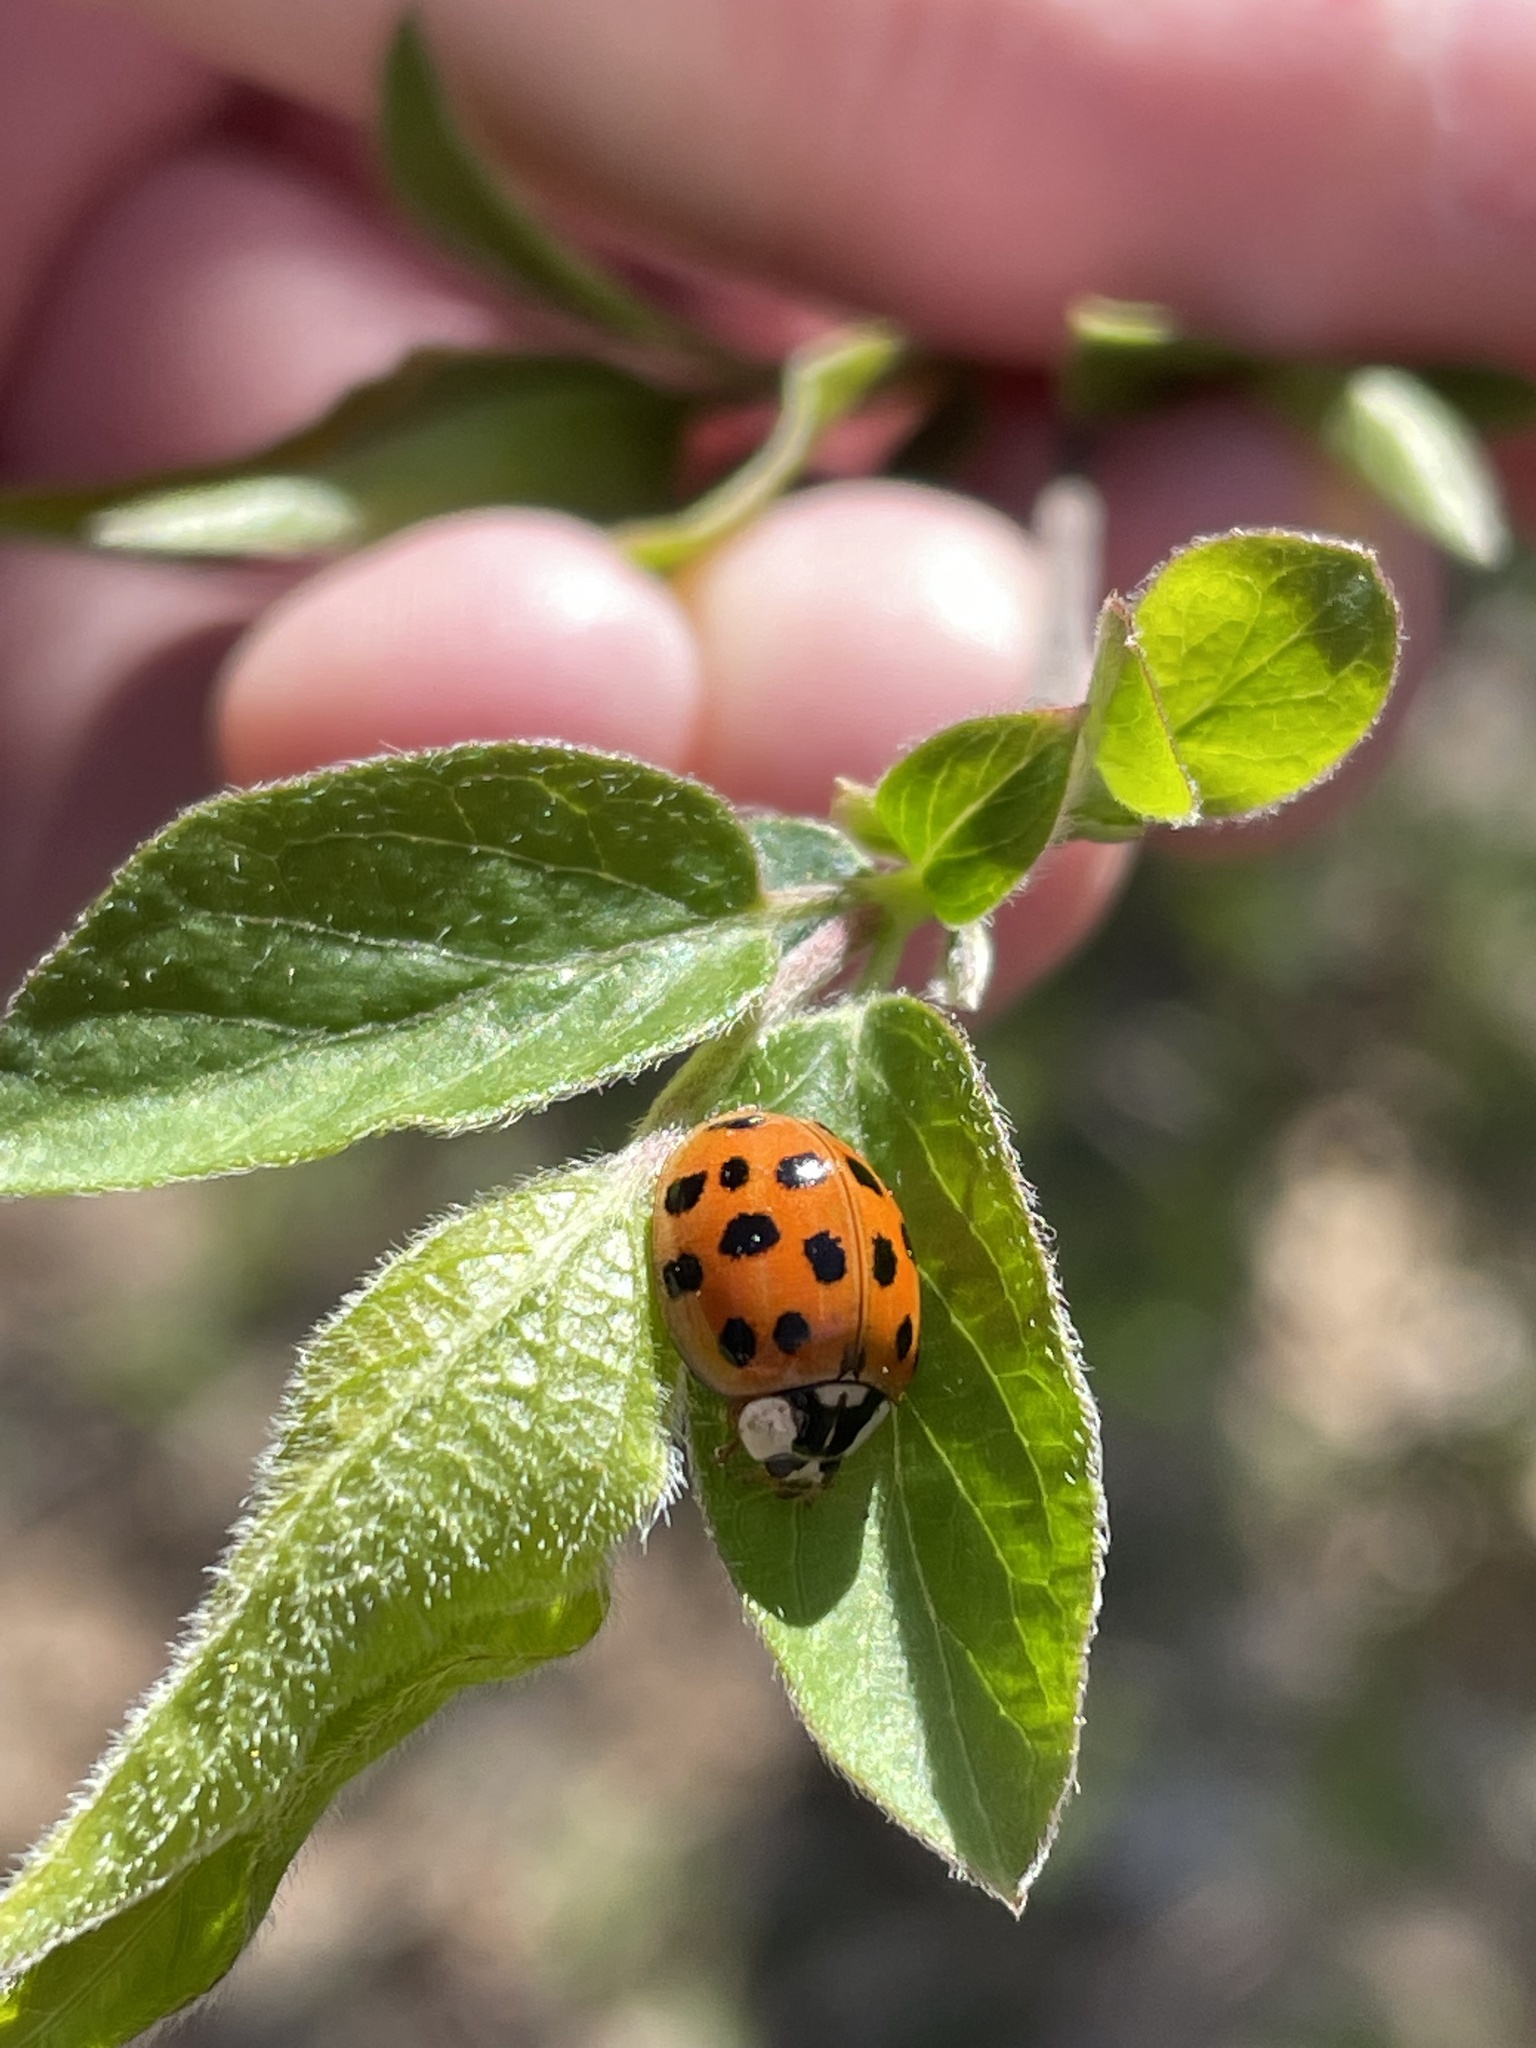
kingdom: Animalia
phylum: Arthropoda
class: Insecta
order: Coleoptera
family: Coccinellidae
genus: Harmonia
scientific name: Harmonia axyridis
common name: Harlequin ladybird
